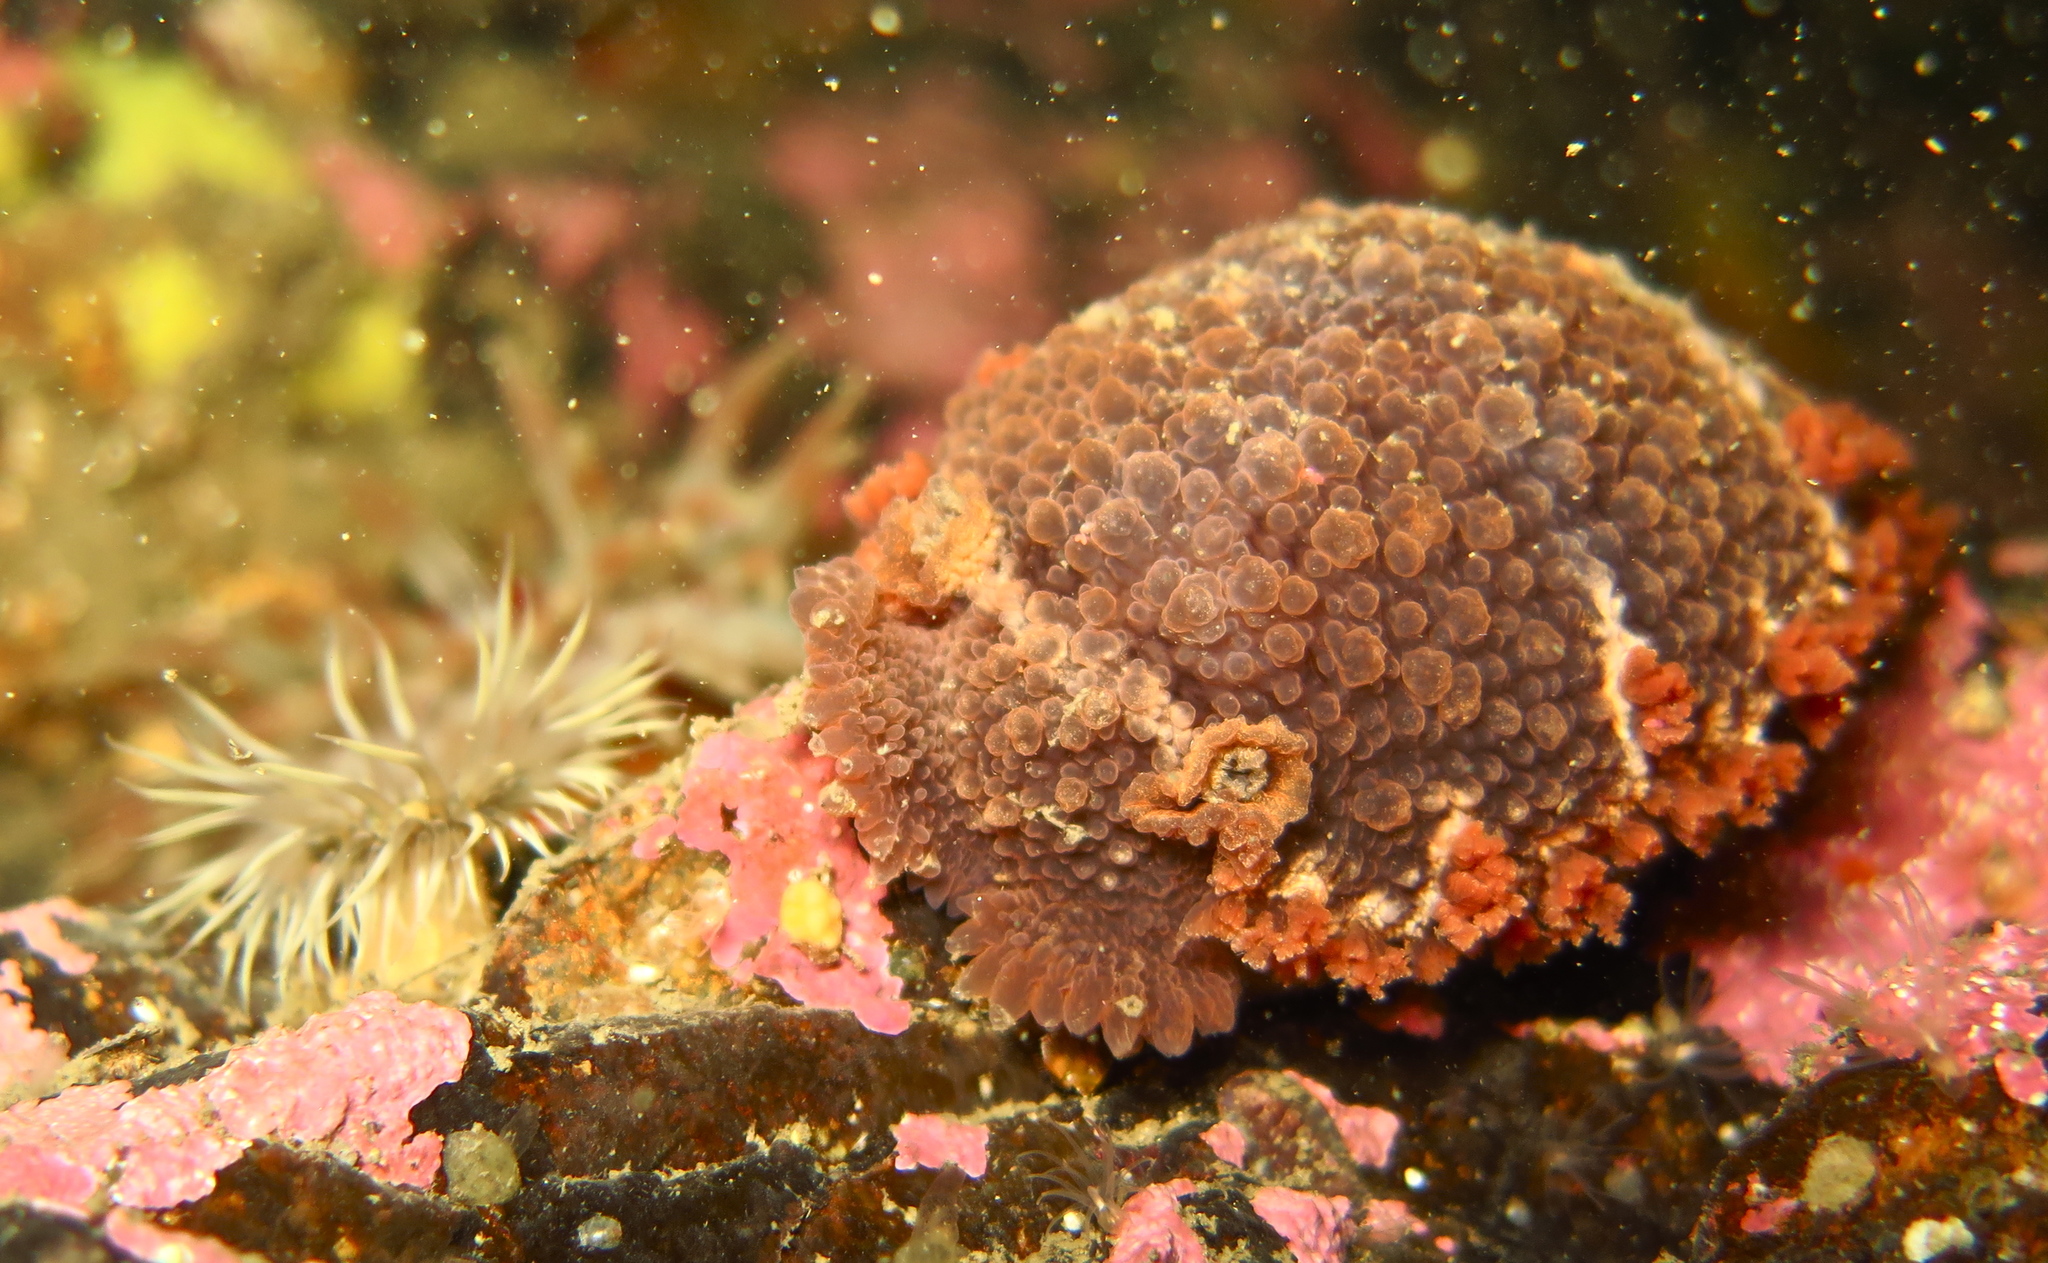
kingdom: Animalia
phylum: Mollusca
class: Gastropoda
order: Nudibranchia
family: Tritoniidae
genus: Tritonia
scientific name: Tritonia hombergii
